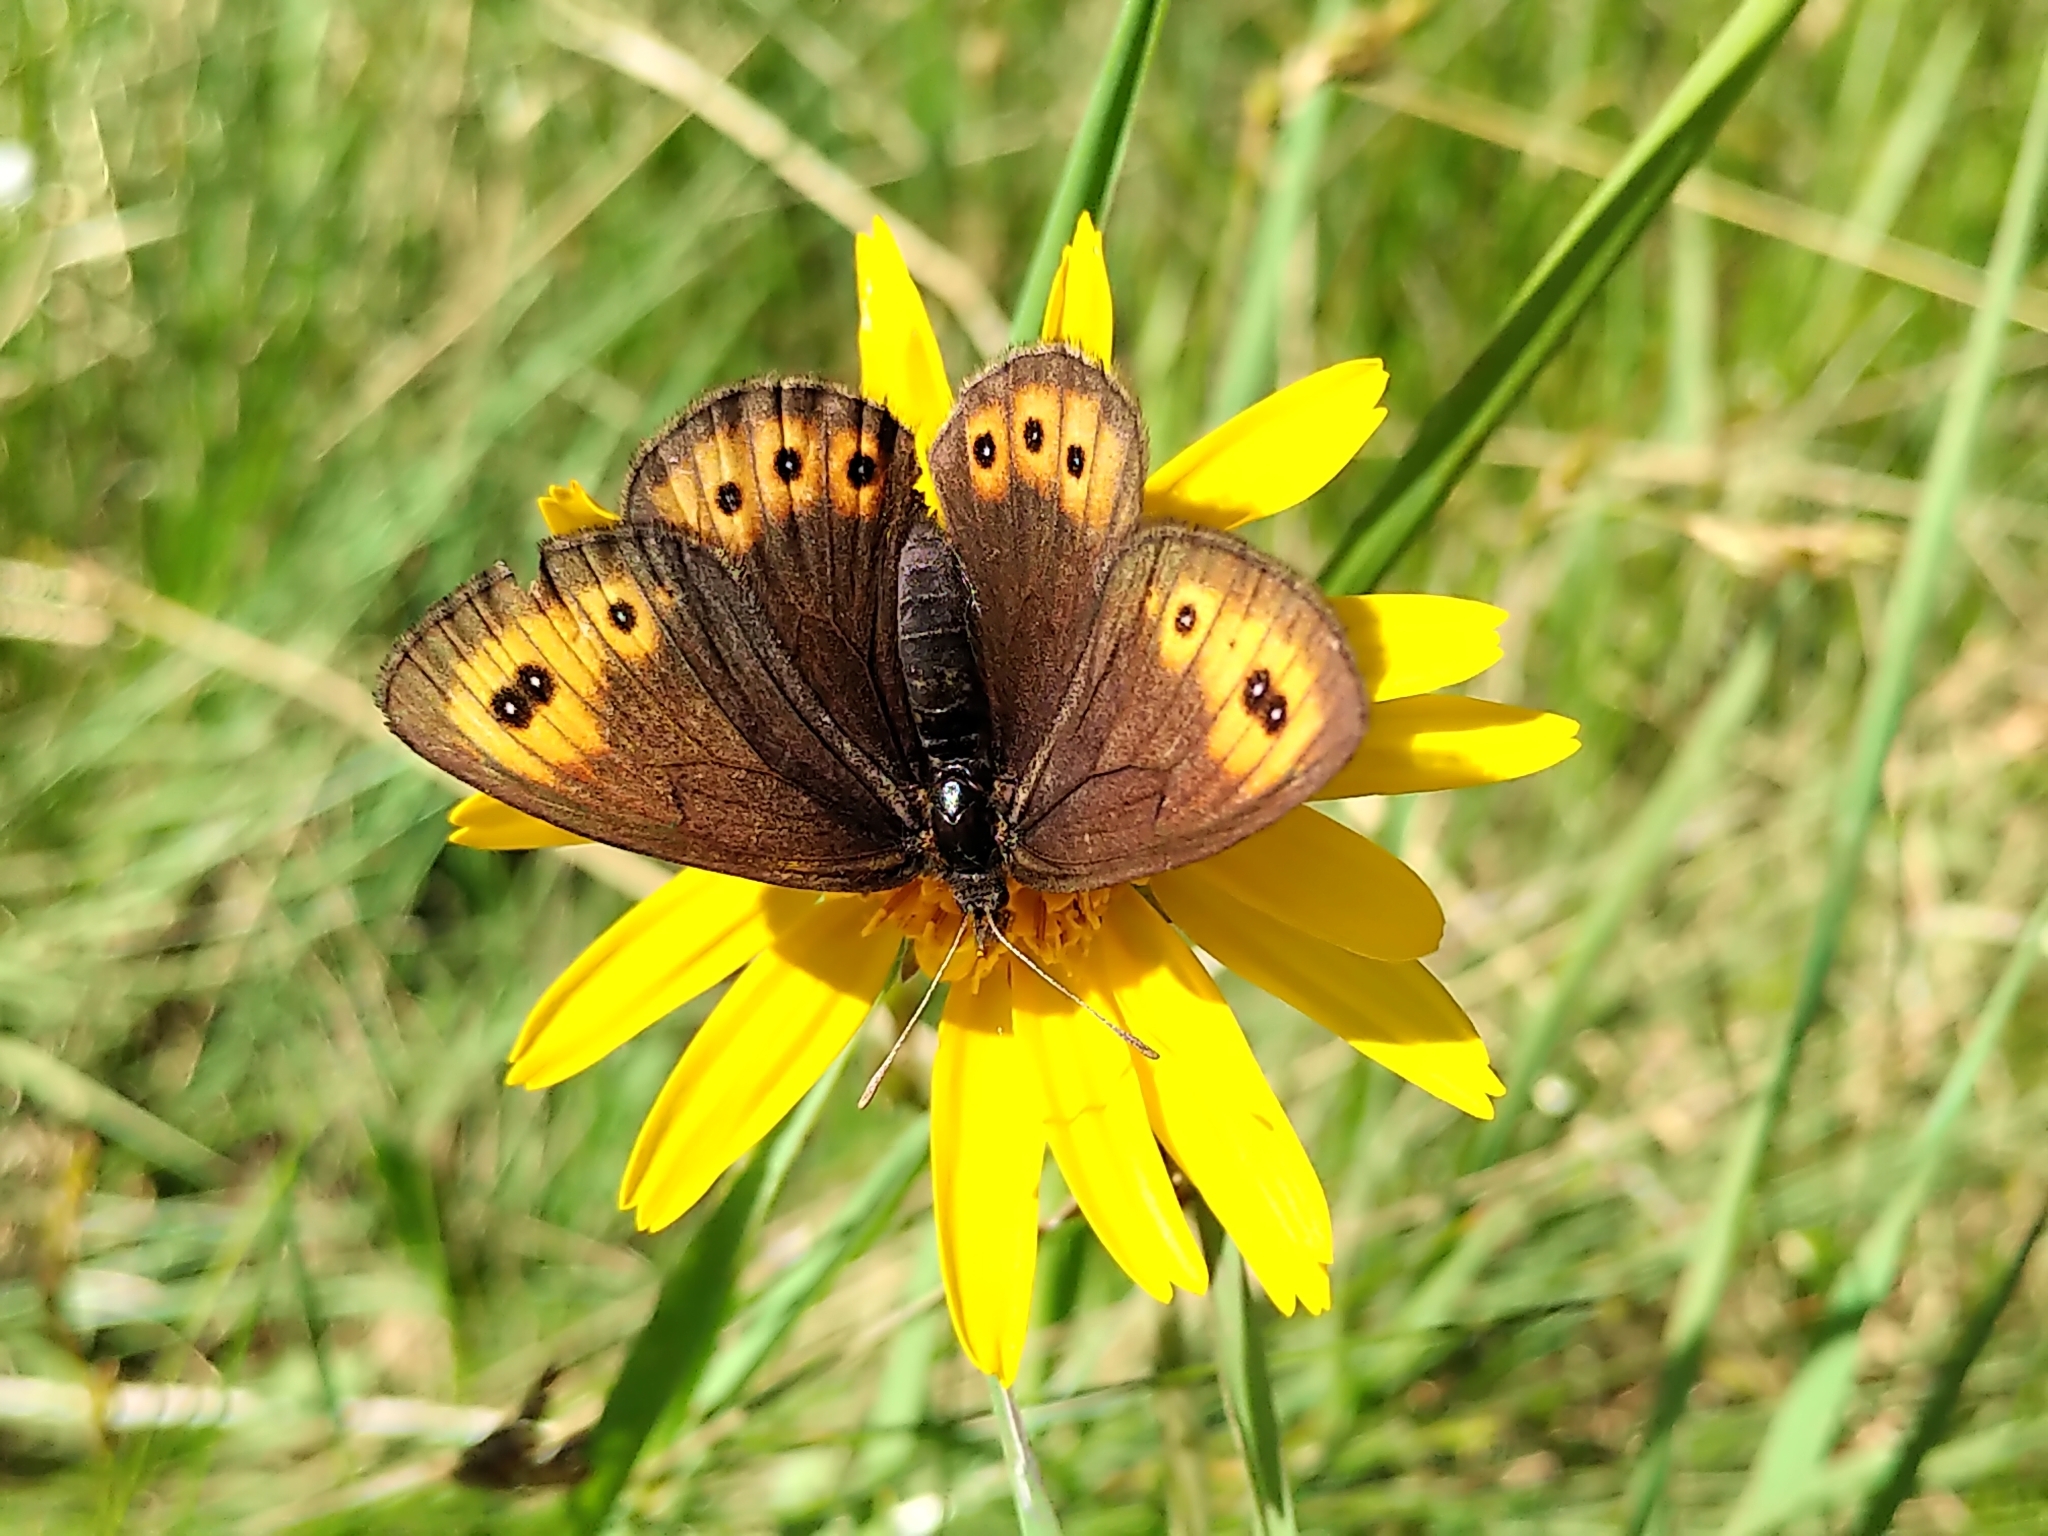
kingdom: Animalia
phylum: Arthropoda
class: Insecta
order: Lepidoptera
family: Nymphalidae
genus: Erebia
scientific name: Erebia epipsodea
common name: Common alpine
